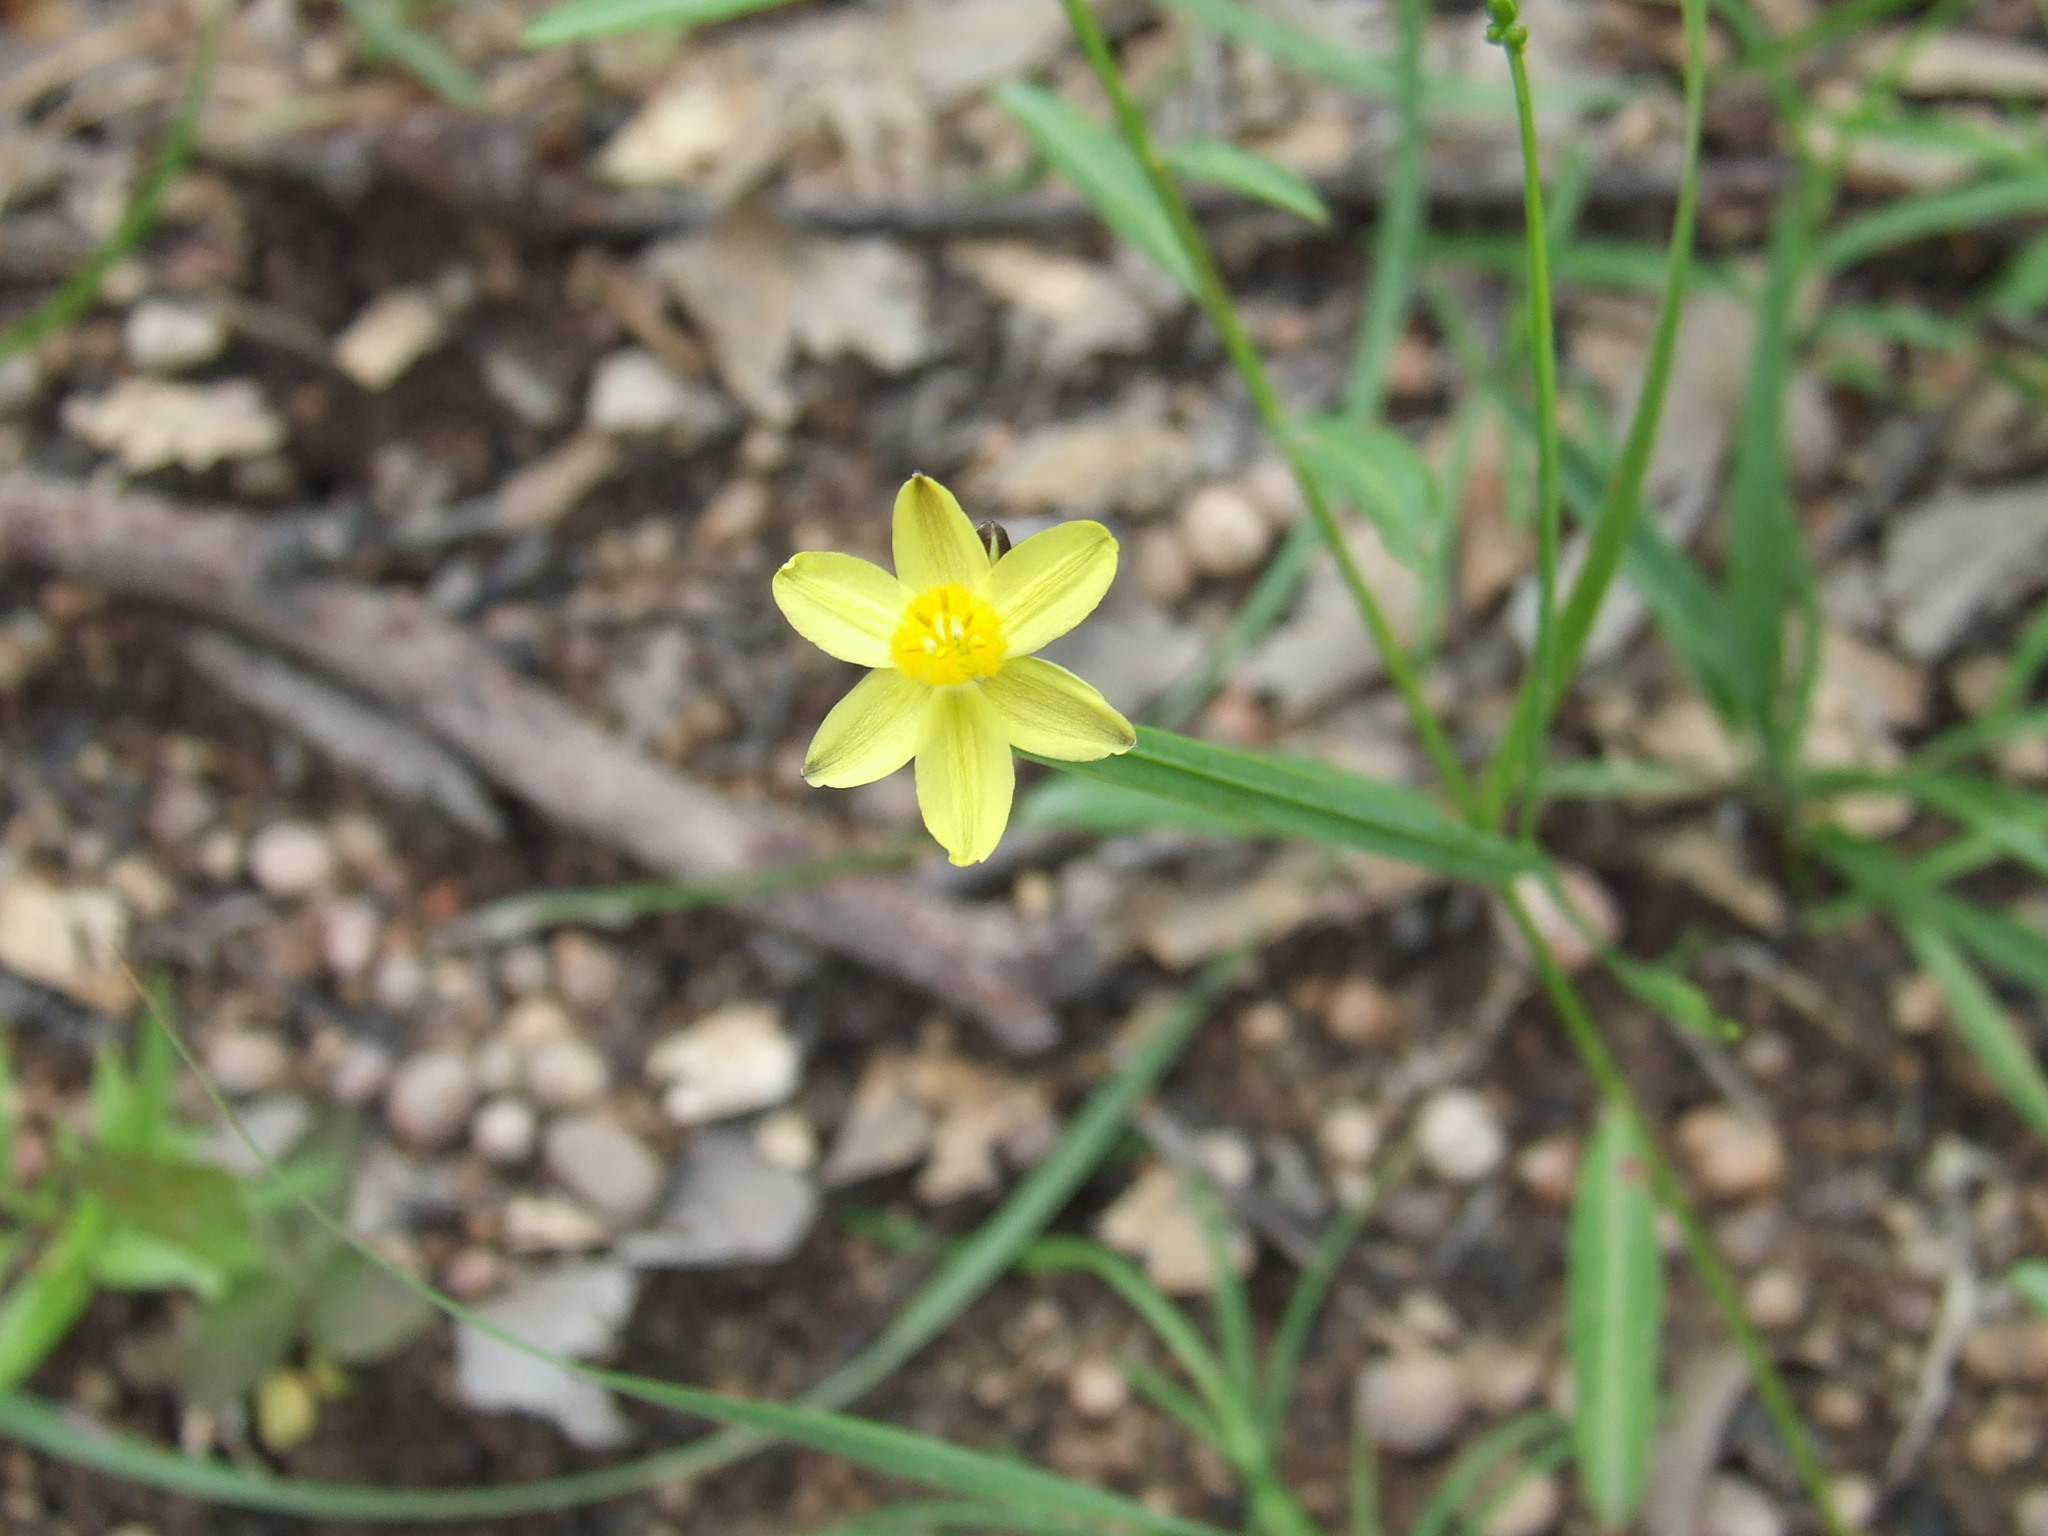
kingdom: Plantae
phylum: Tracheophyta
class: Liliopsida
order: Asparagales
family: Asphodelaceae
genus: Tricoryne
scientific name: Tricoryne anceps
